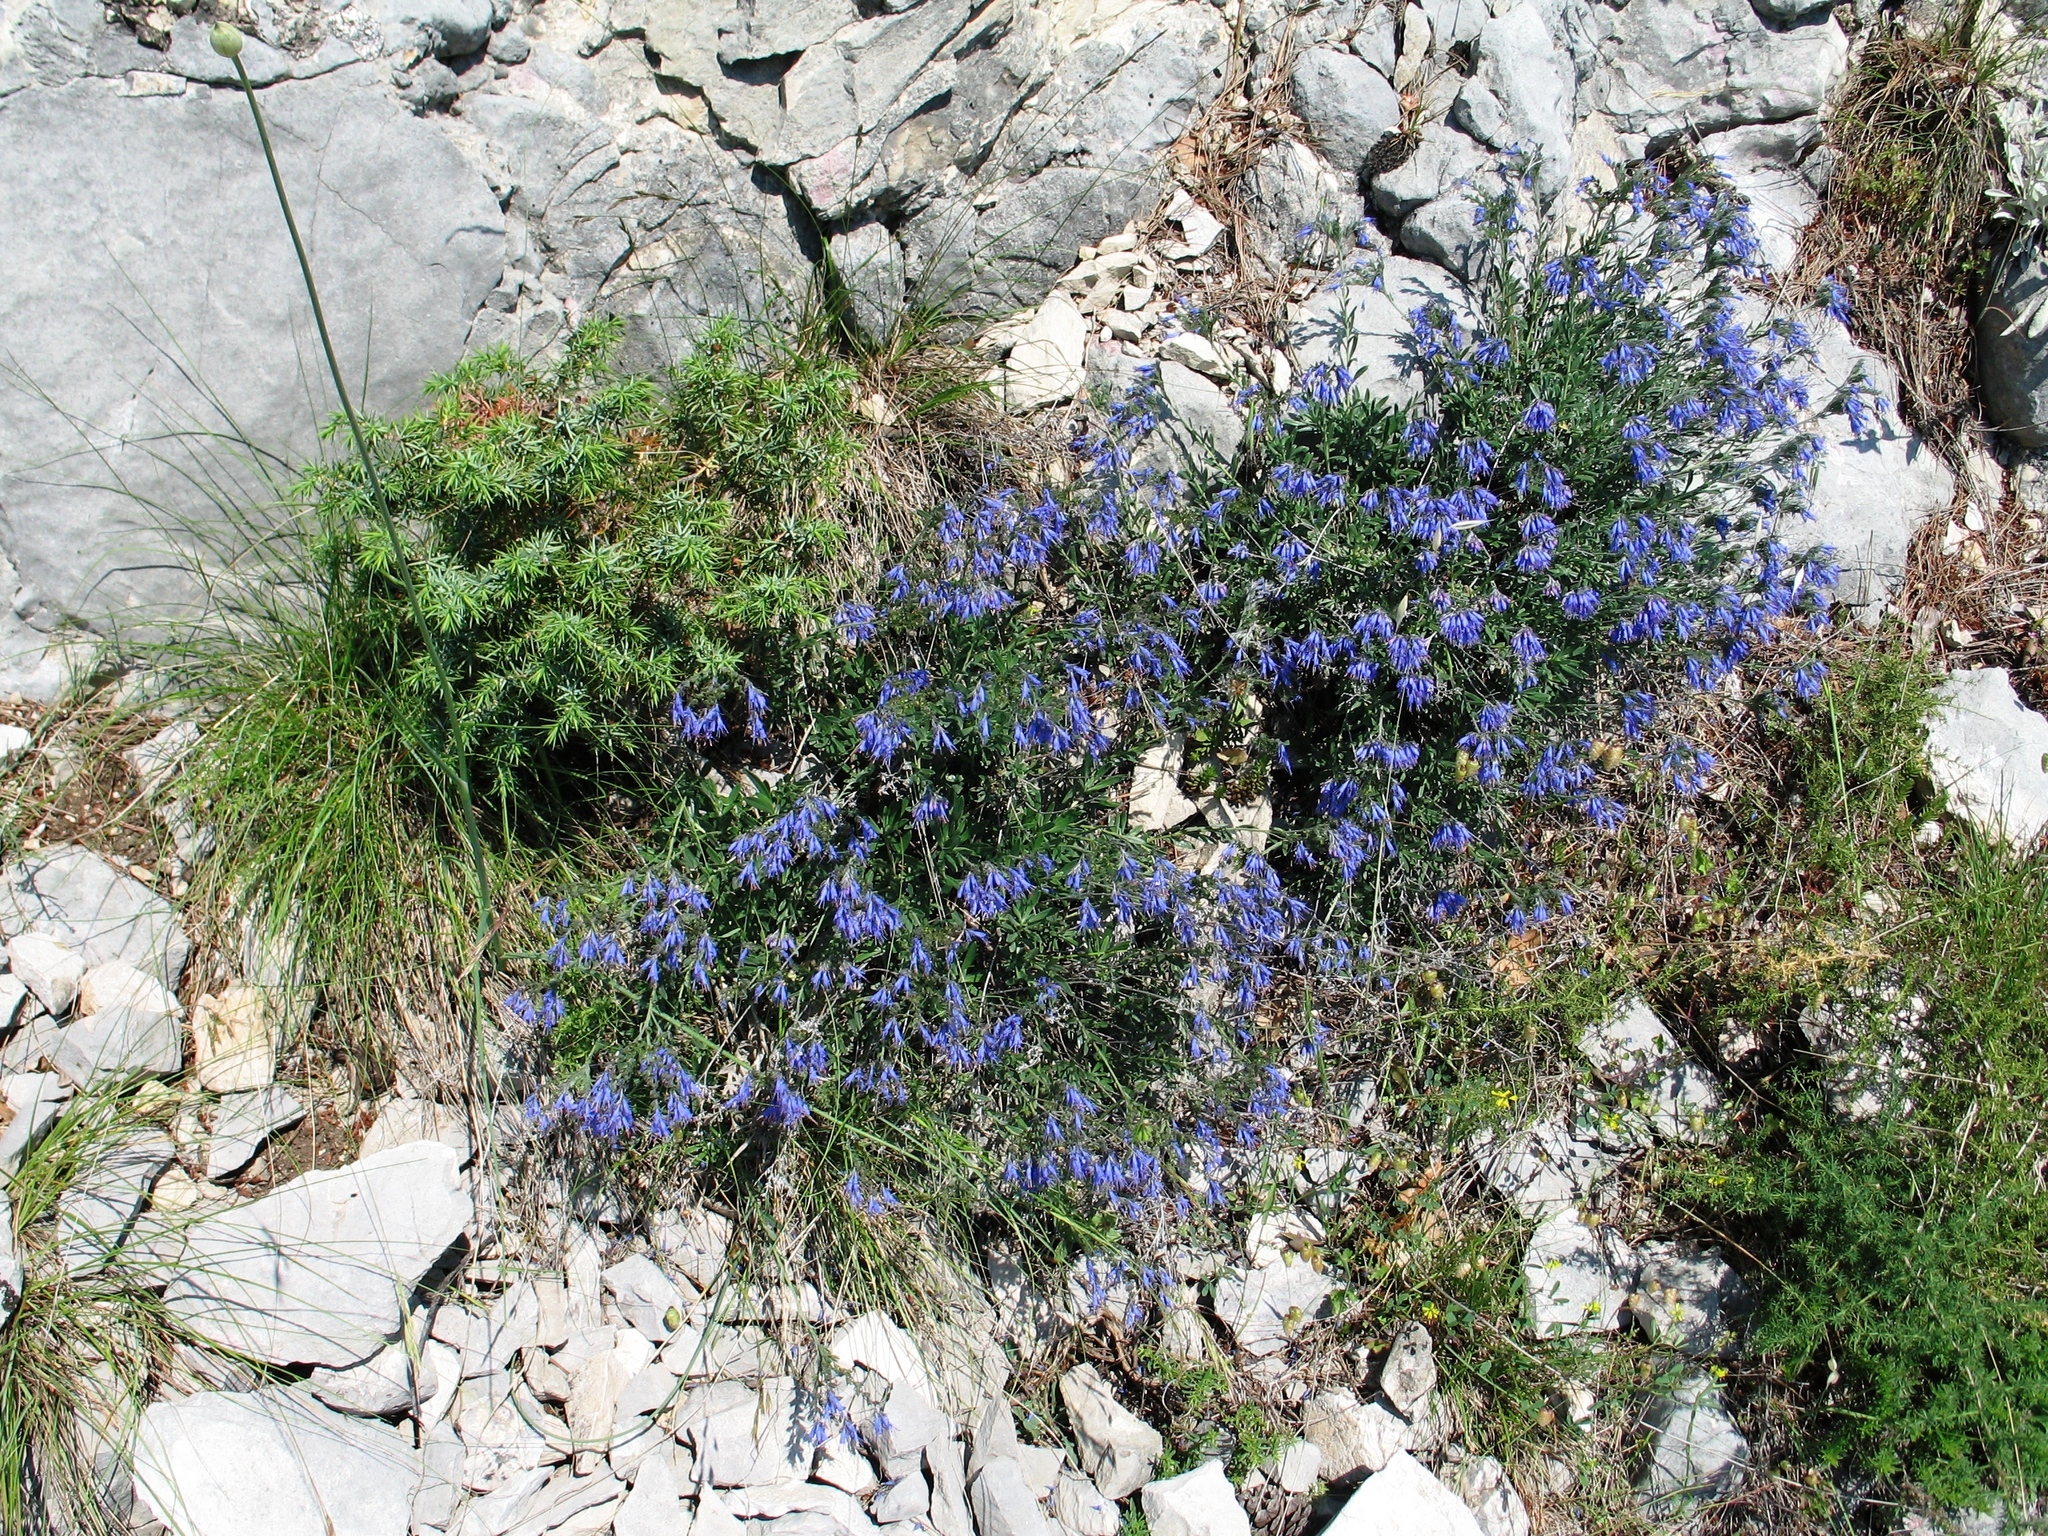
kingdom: Plantae
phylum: Tracheophyta
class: Magnoliopsida
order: Boraginales
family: Boraginaceae
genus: Moltkia
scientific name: Moltkia petraea
